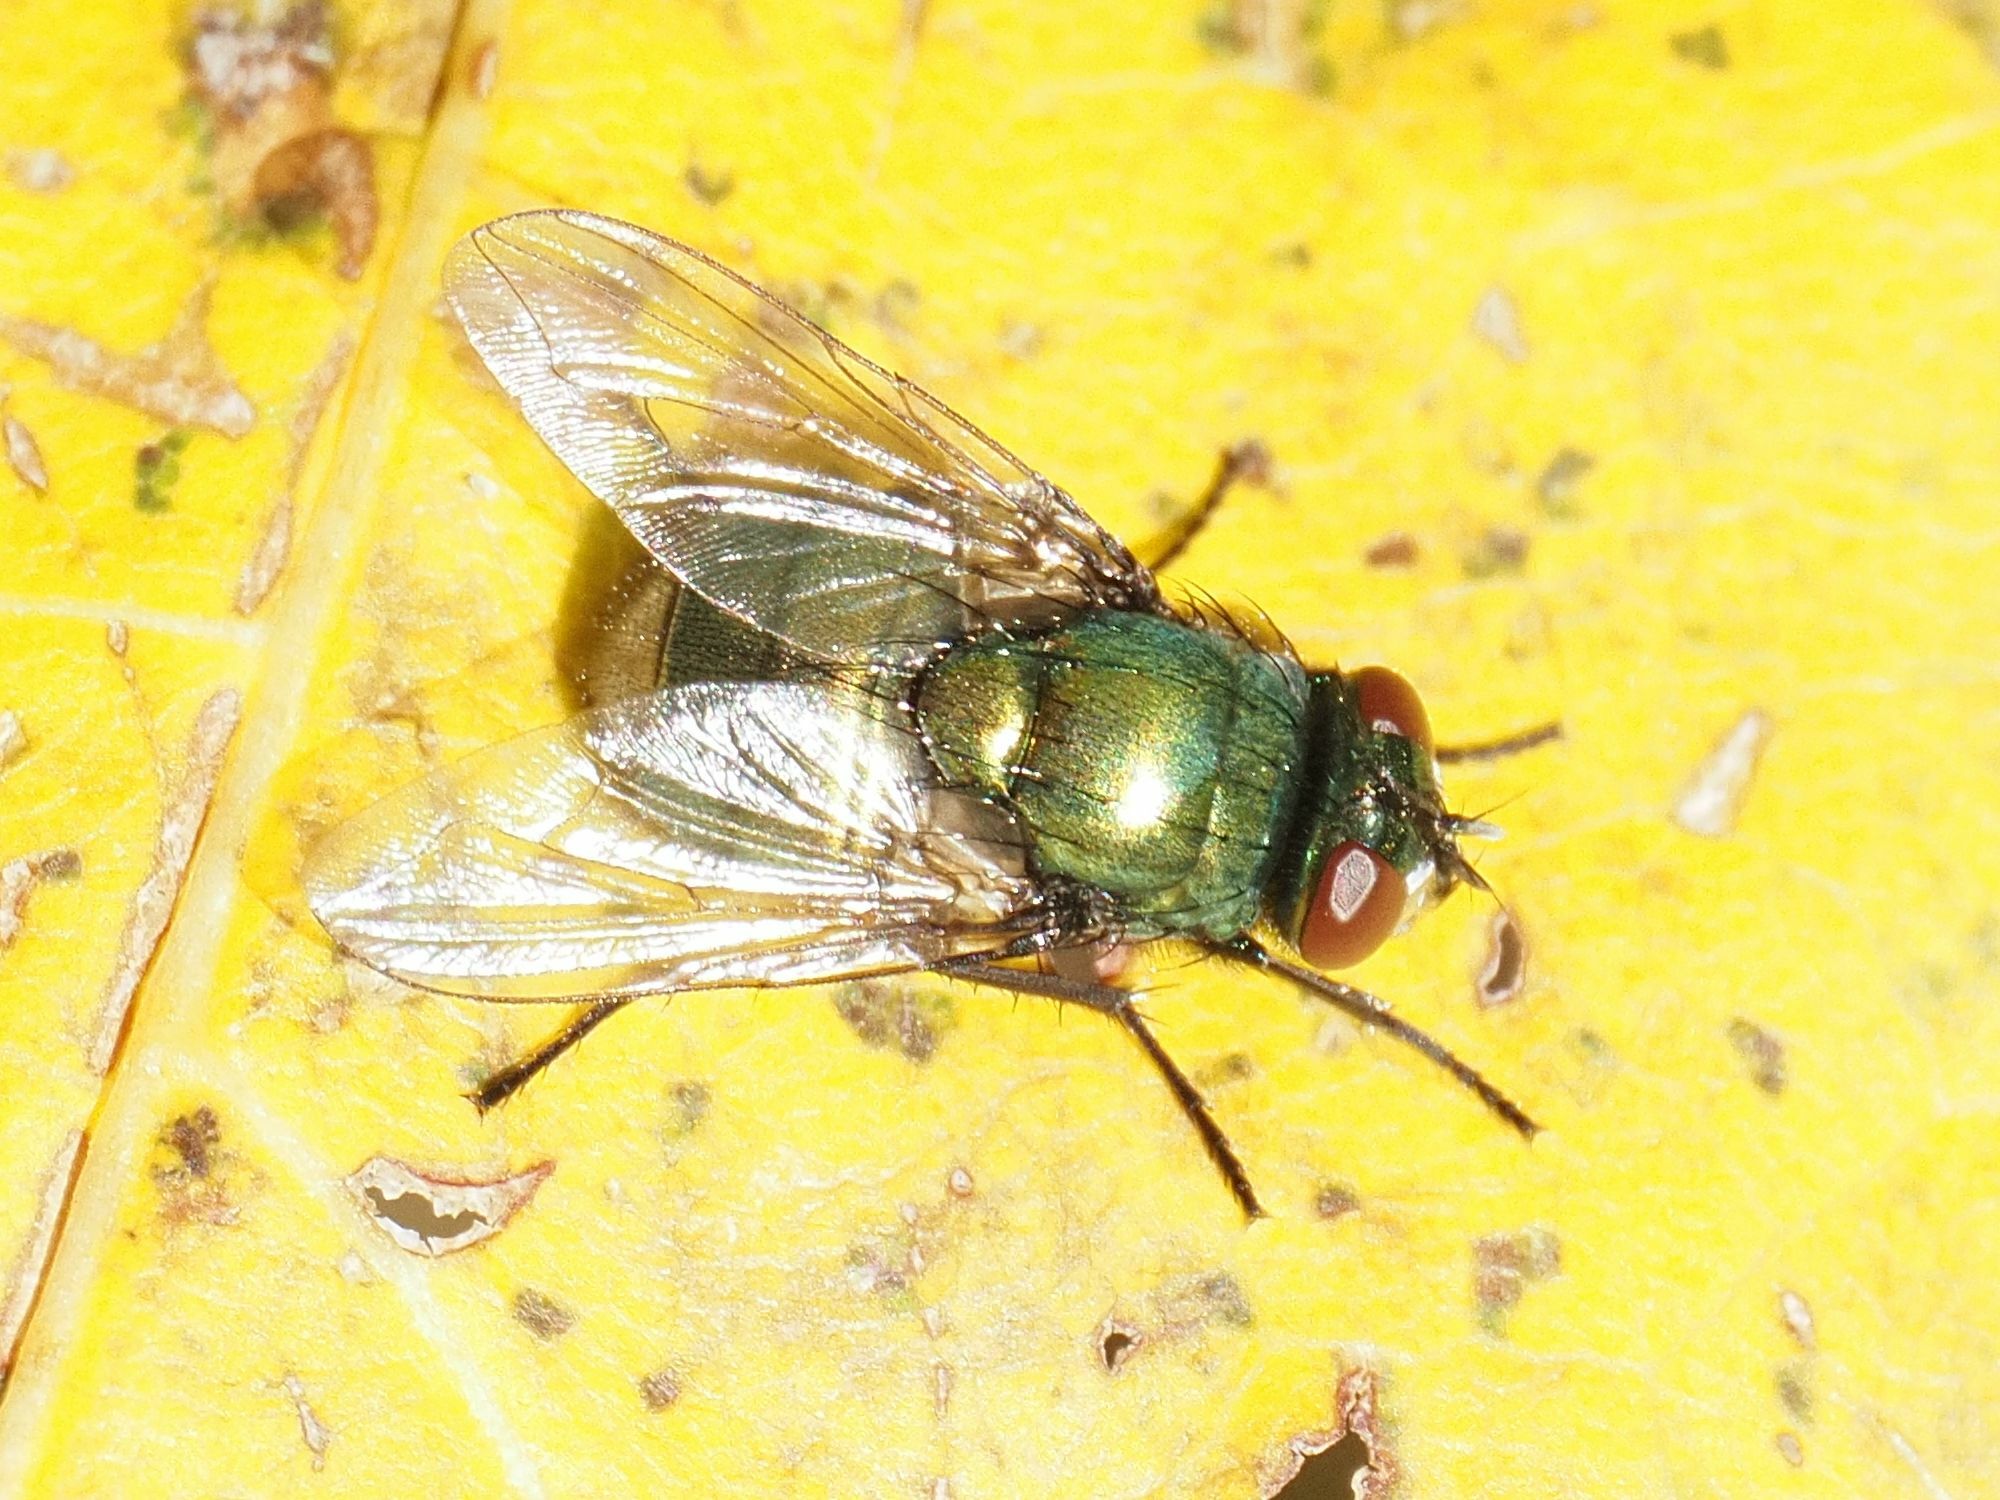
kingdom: Animalia
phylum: Arthropoda
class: Insecta
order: Diptera
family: Muscidae
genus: Neomyia
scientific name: Neomyia cornicina
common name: House fly
